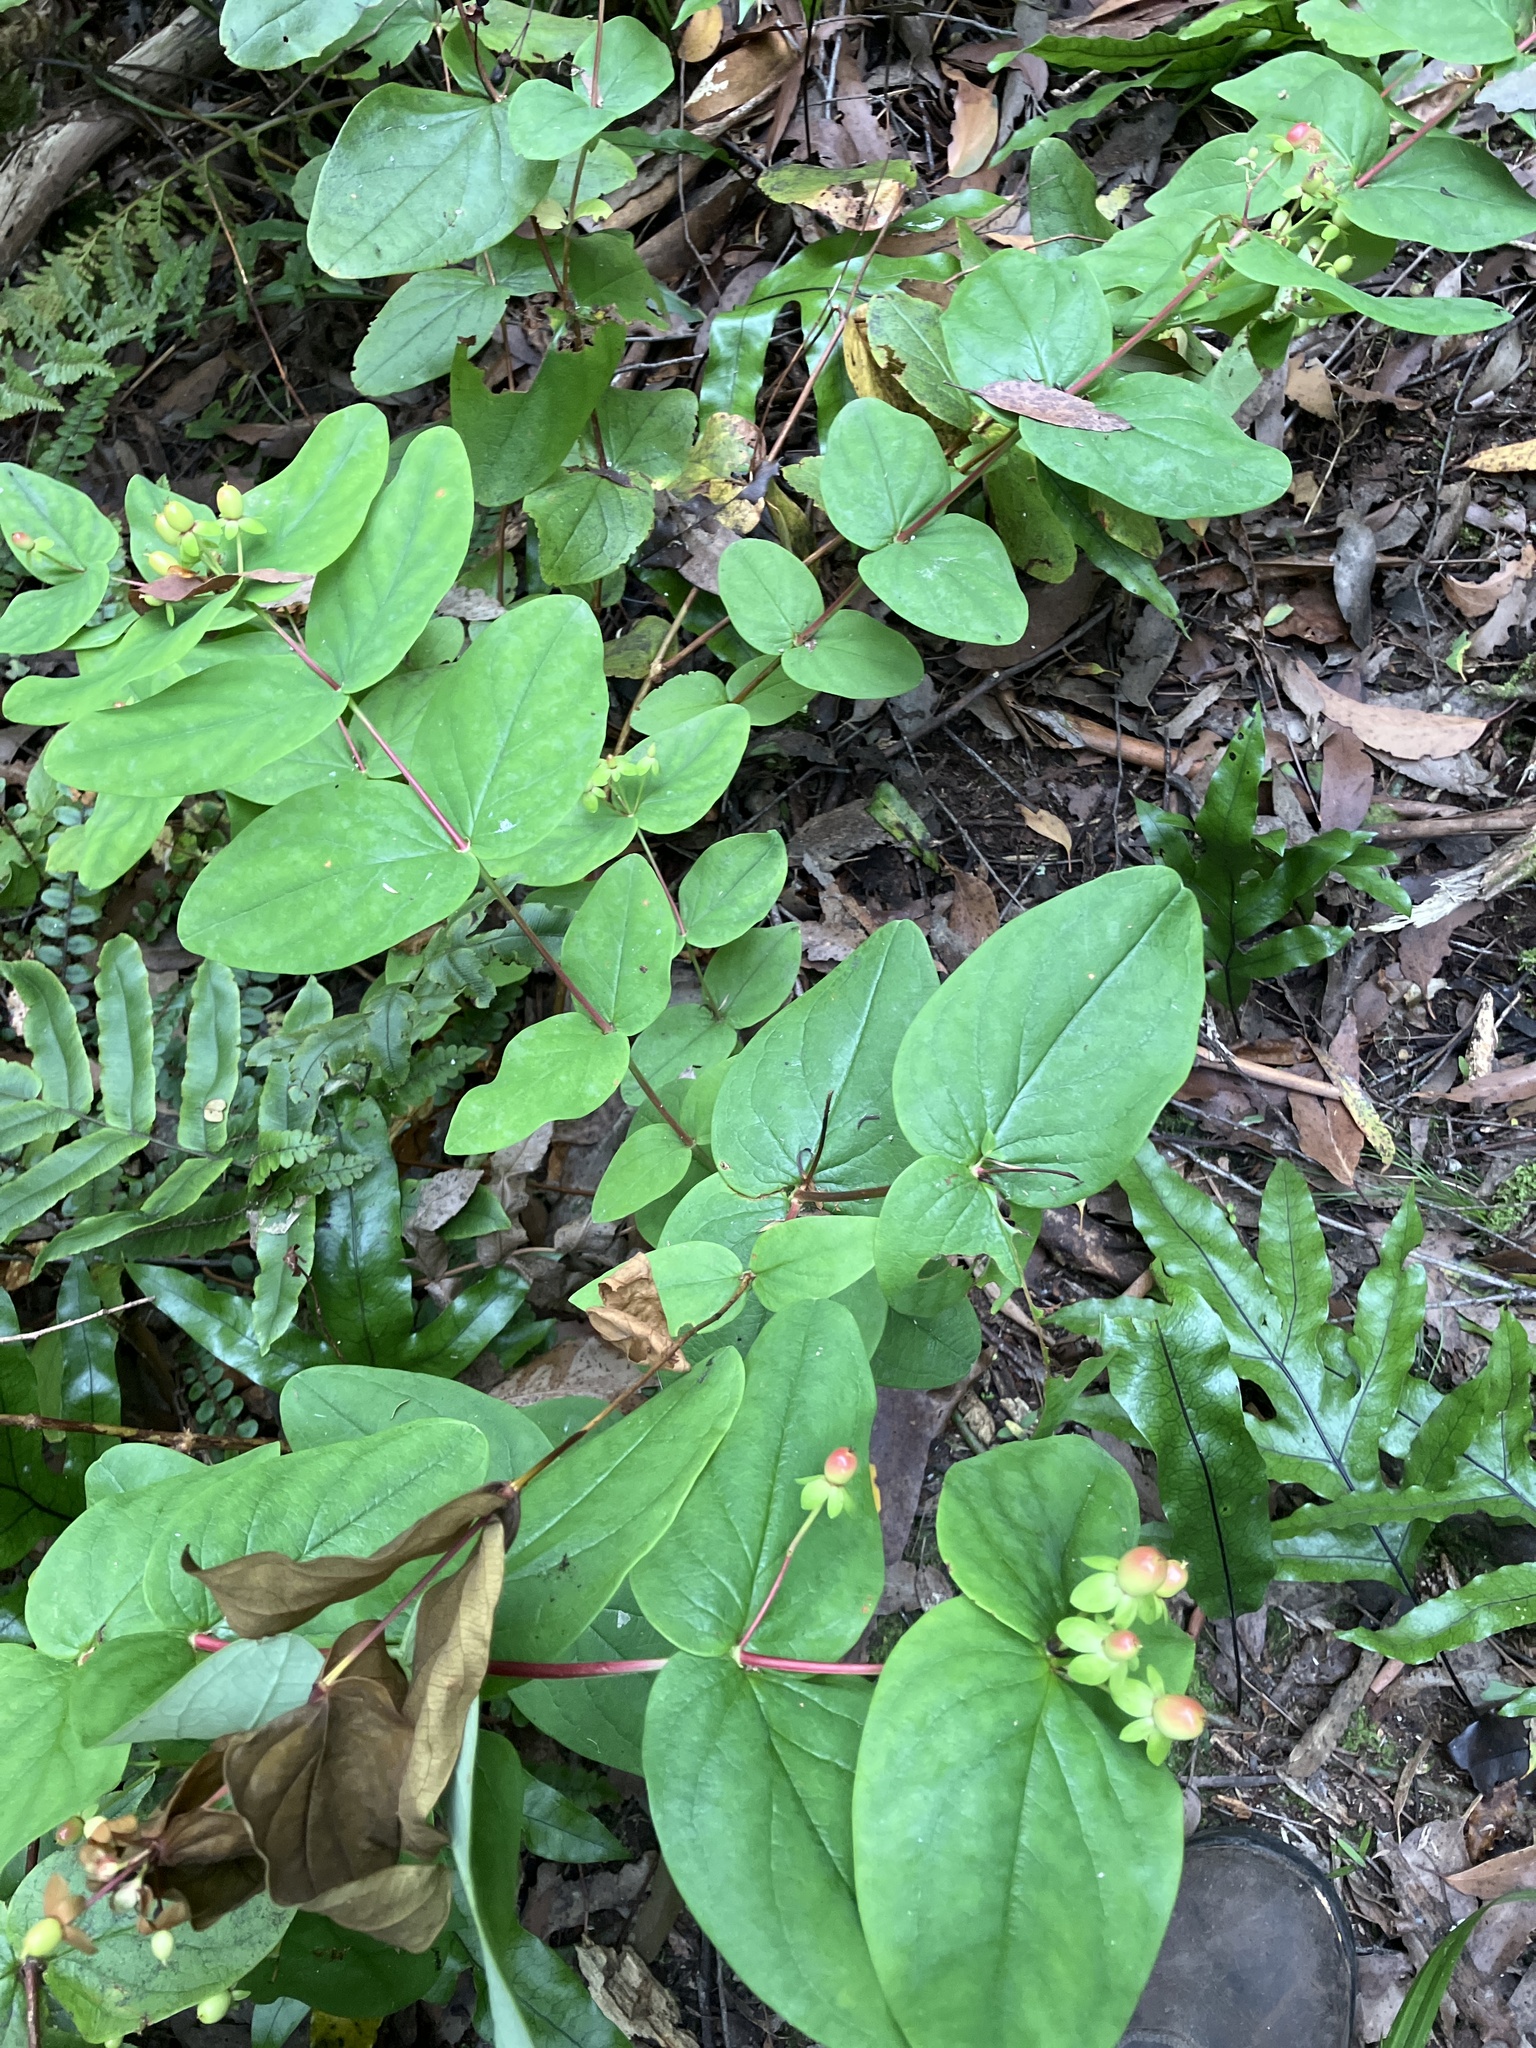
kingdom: Plantae
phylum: Tracheophyta
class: Magnoliopsida
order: Malpighiales
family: Hypericaceae
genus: Hypericum
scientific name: Hypericum androsaemum
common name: Sweet-amber
